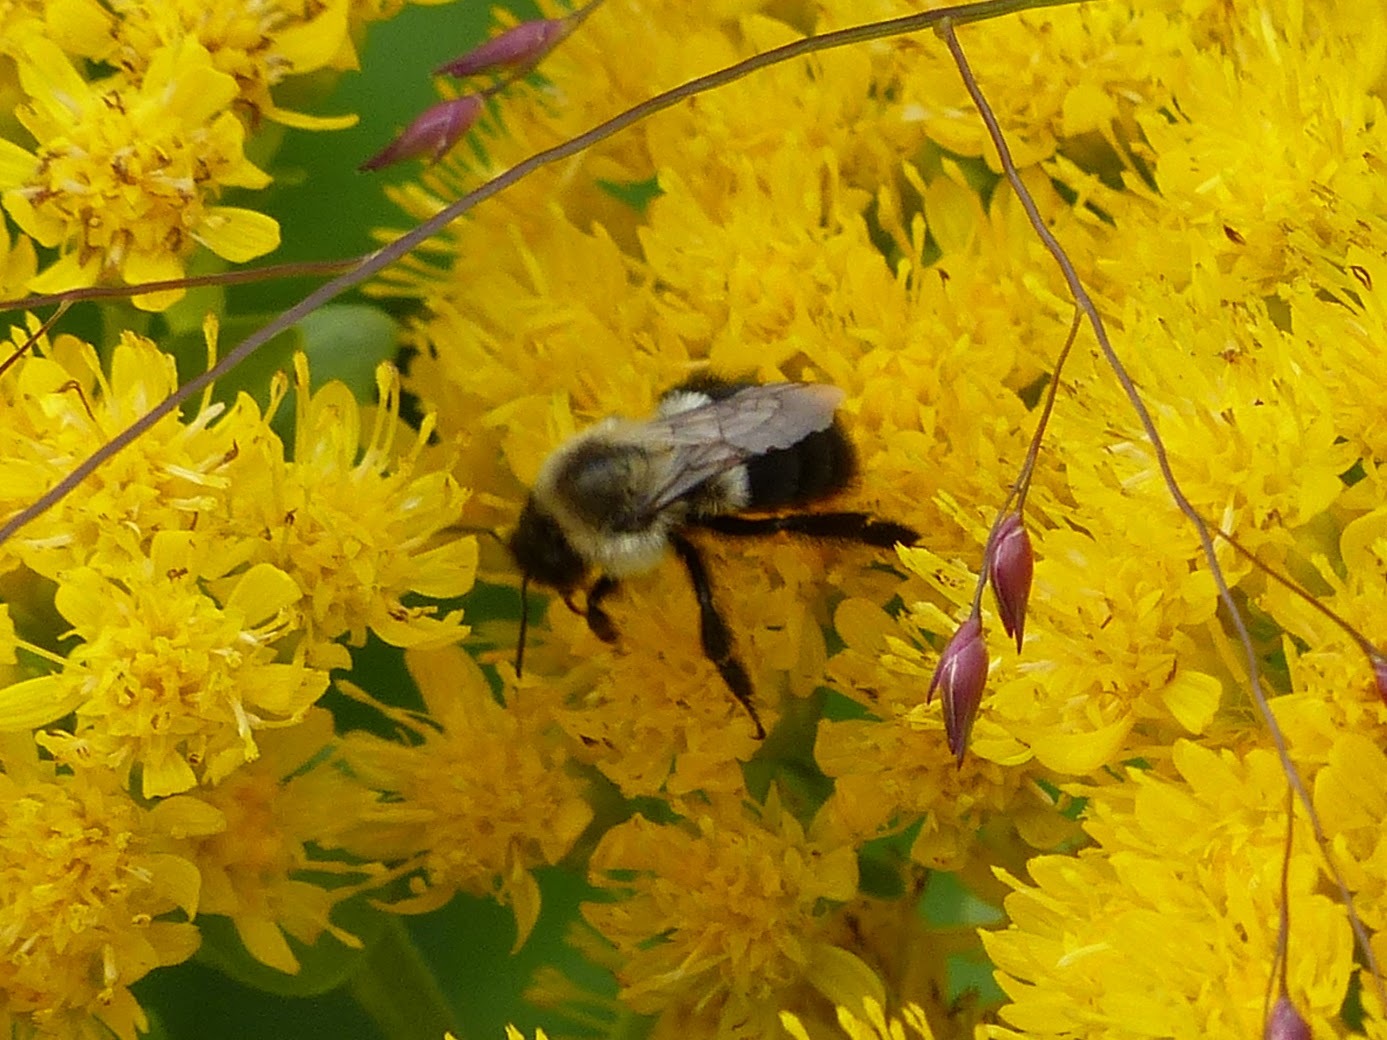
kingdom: Animalia
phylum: Arthropoda
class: Insecta
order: Hymenoptera
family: Apidae
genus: Bombus
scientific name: Bombus impatiens
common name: Common eastern bumble bee
